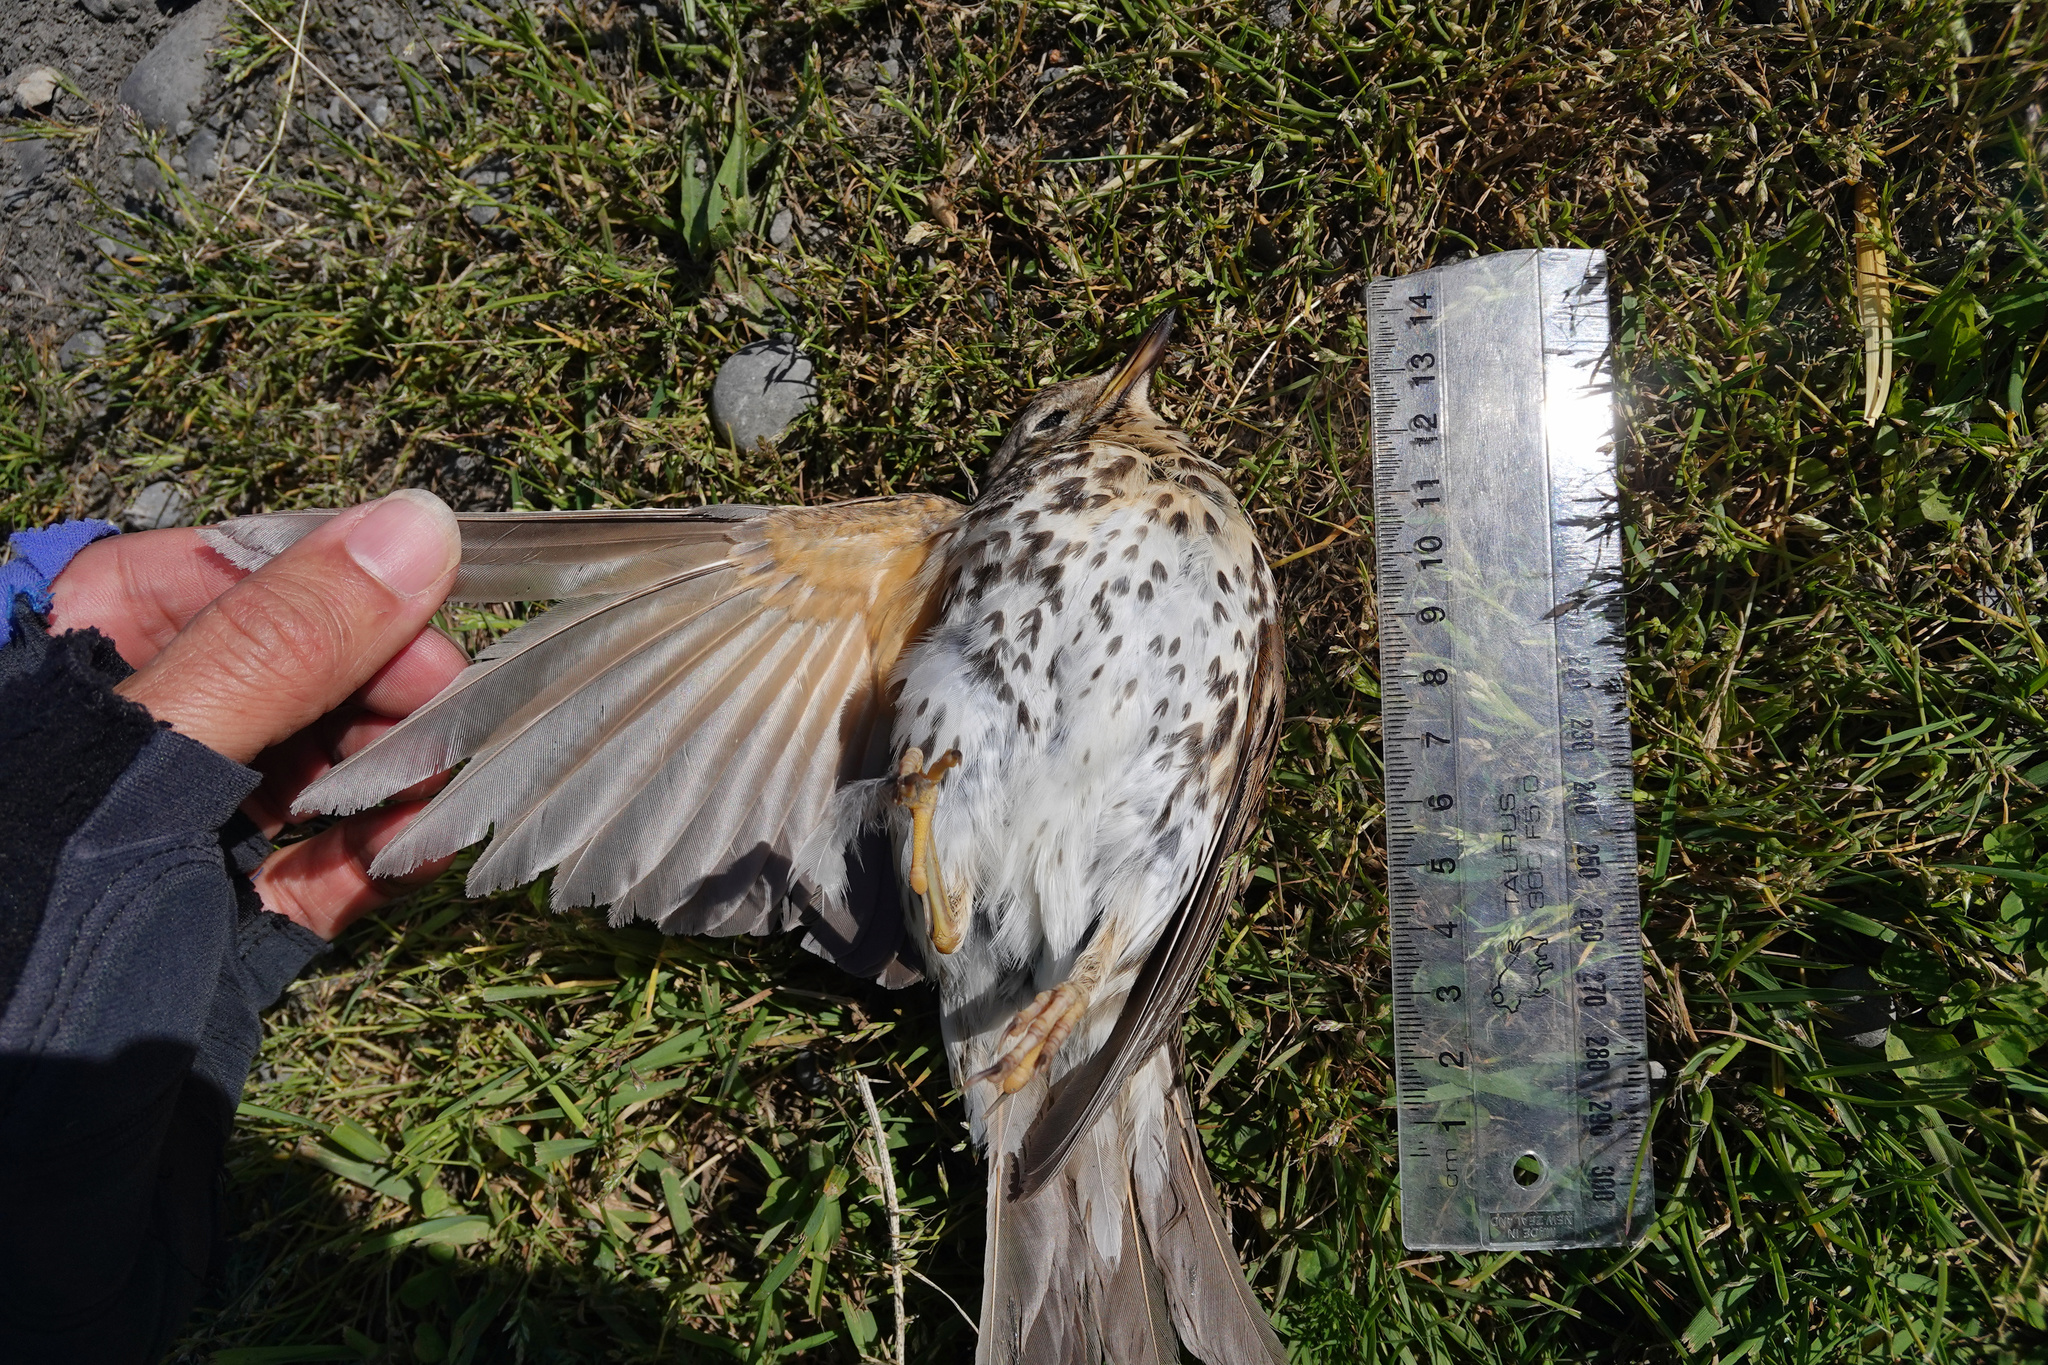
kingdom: Animalia
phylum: Chordata
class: Aves
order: Passeriformes
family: Turdidae
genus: Turdus
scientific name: Turdus philomelos
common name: Song thrush
